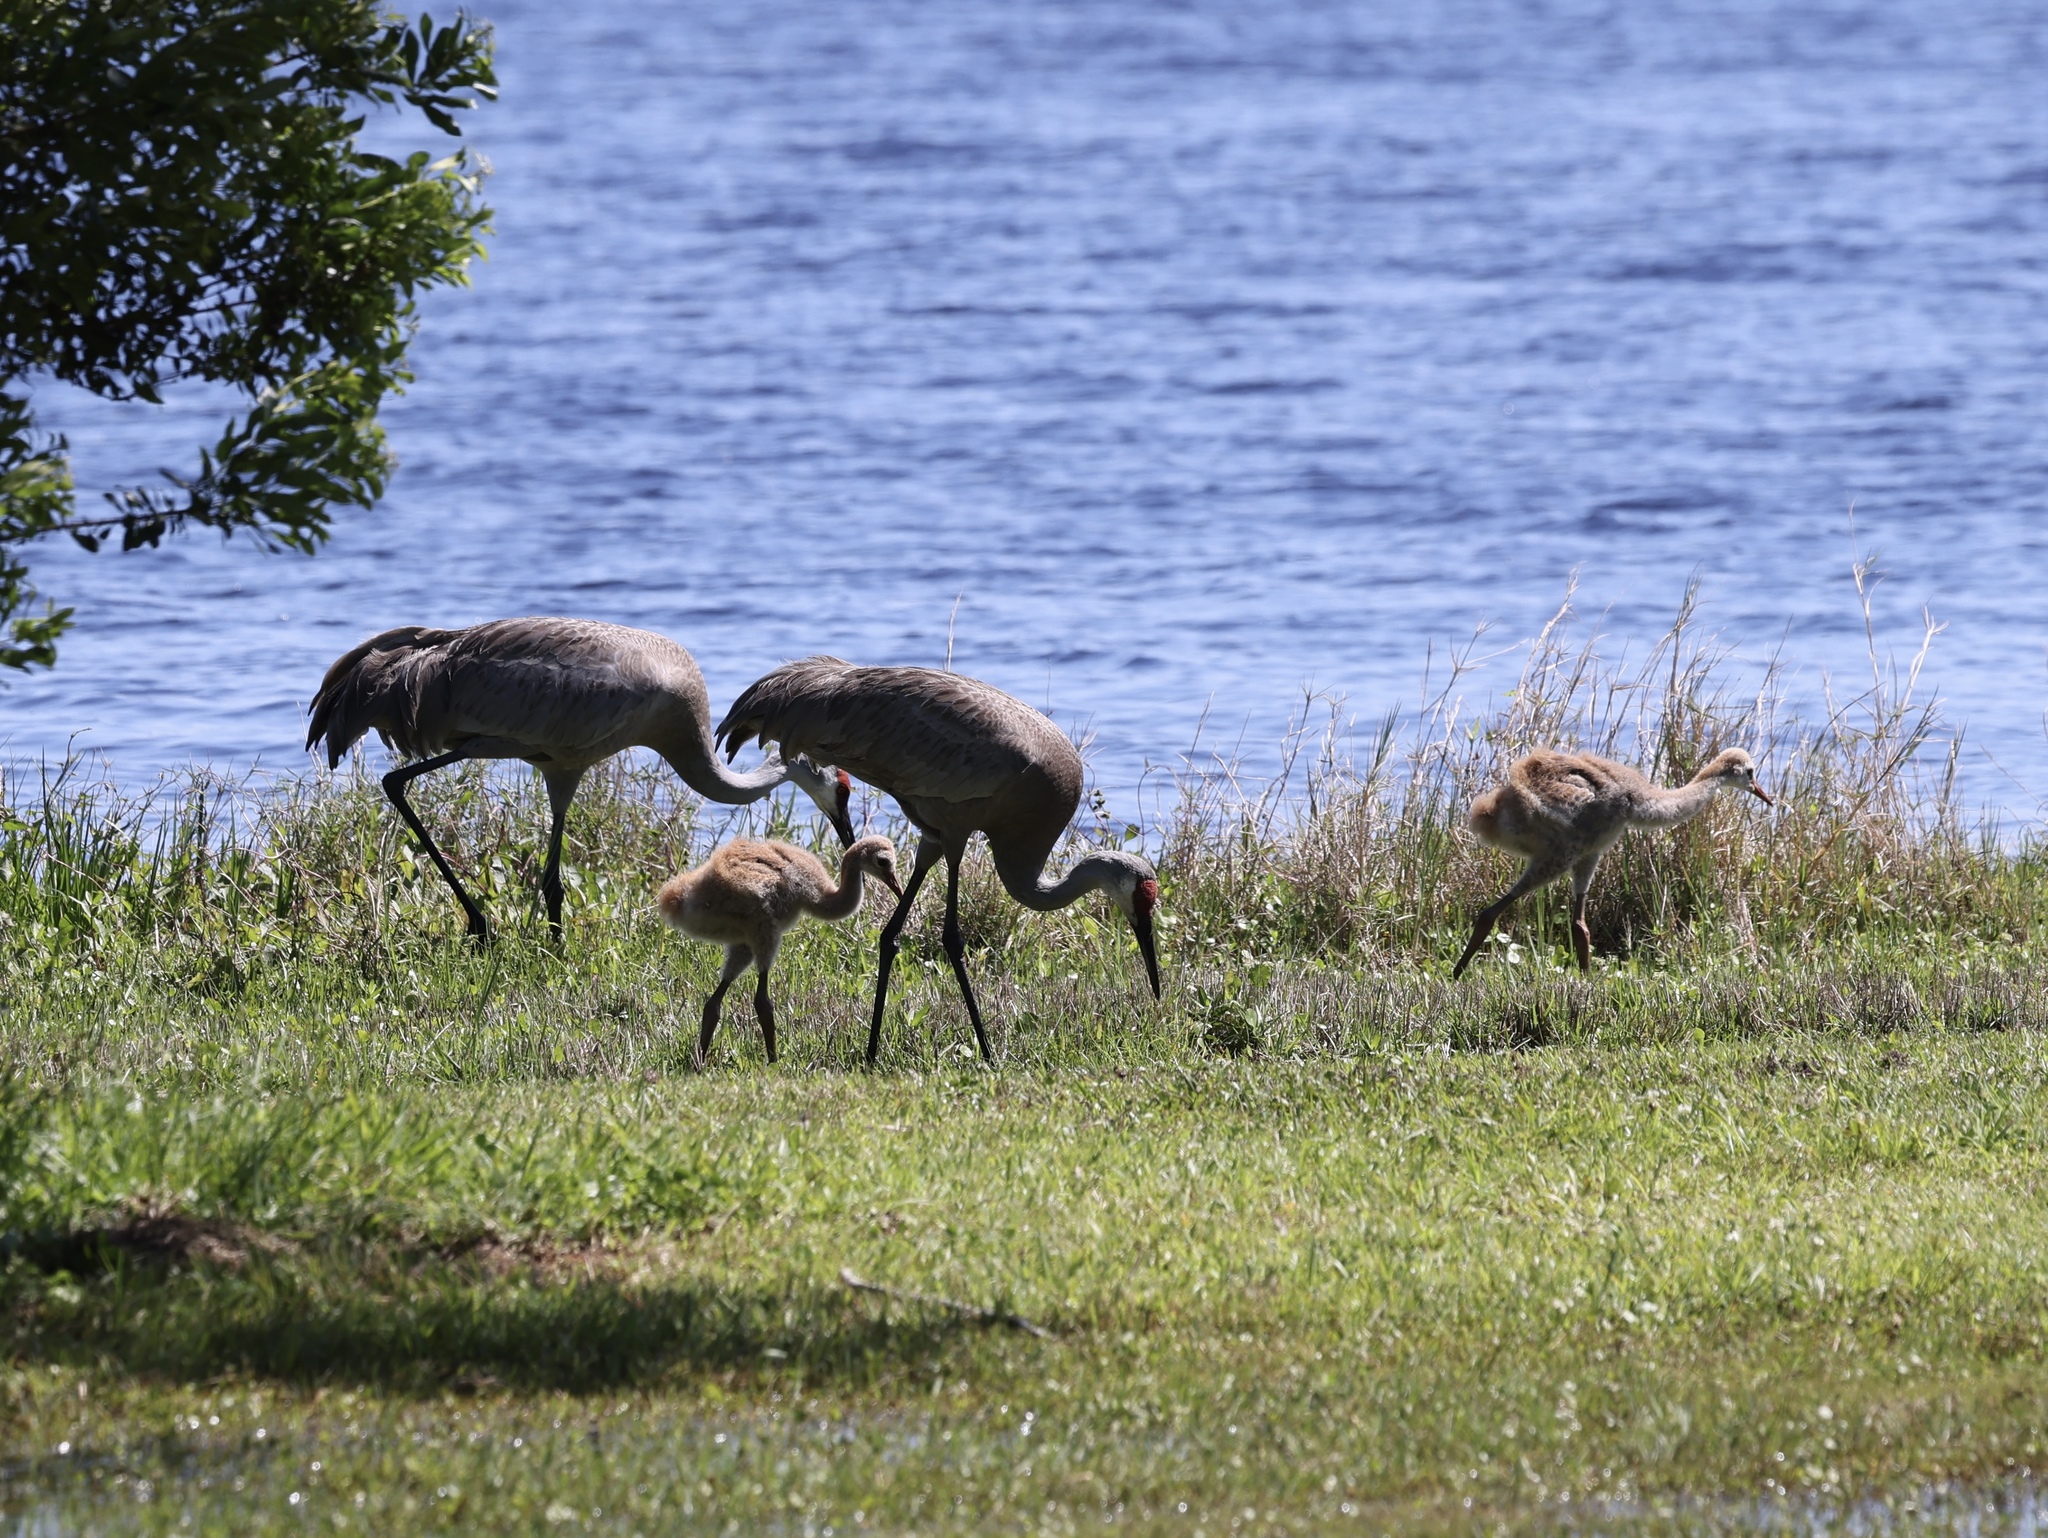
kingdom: Animalia
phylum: Chordata
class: Aves
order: Gruiformes
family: Gruidae
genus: Grus
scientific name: Grus canadensis
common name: Sandhill crane
